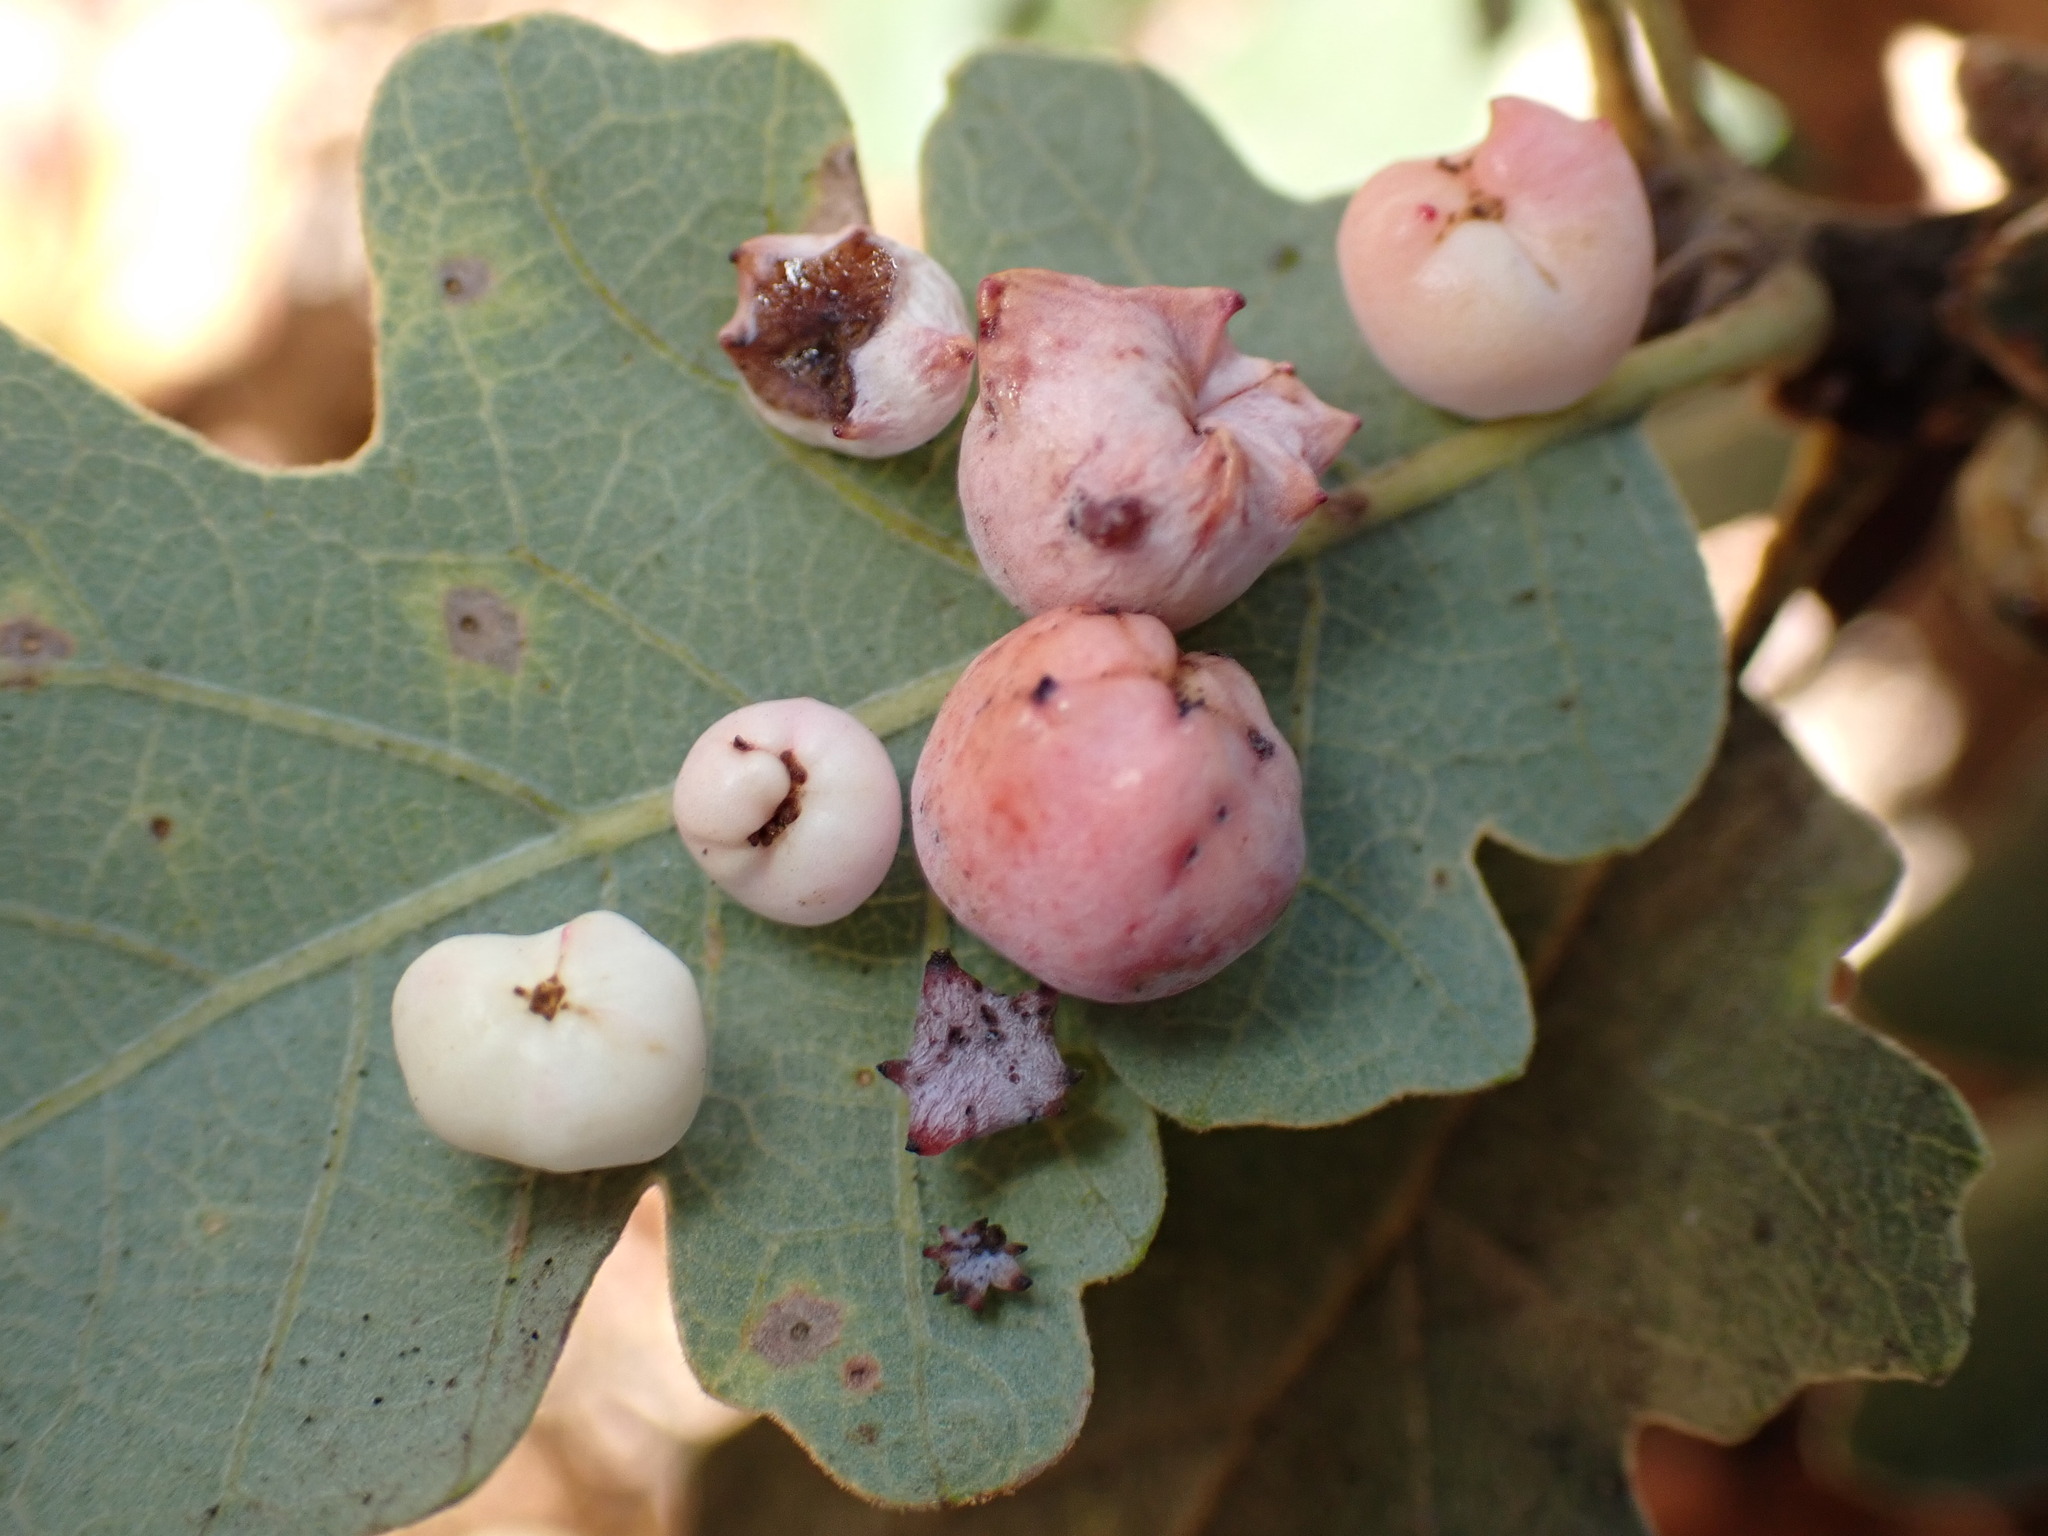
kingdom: Animalia
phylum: Arthropoda
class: Insecta
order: Hymenoptera
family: Cynipidae
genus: Cynips
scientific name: Cynips douglasi
